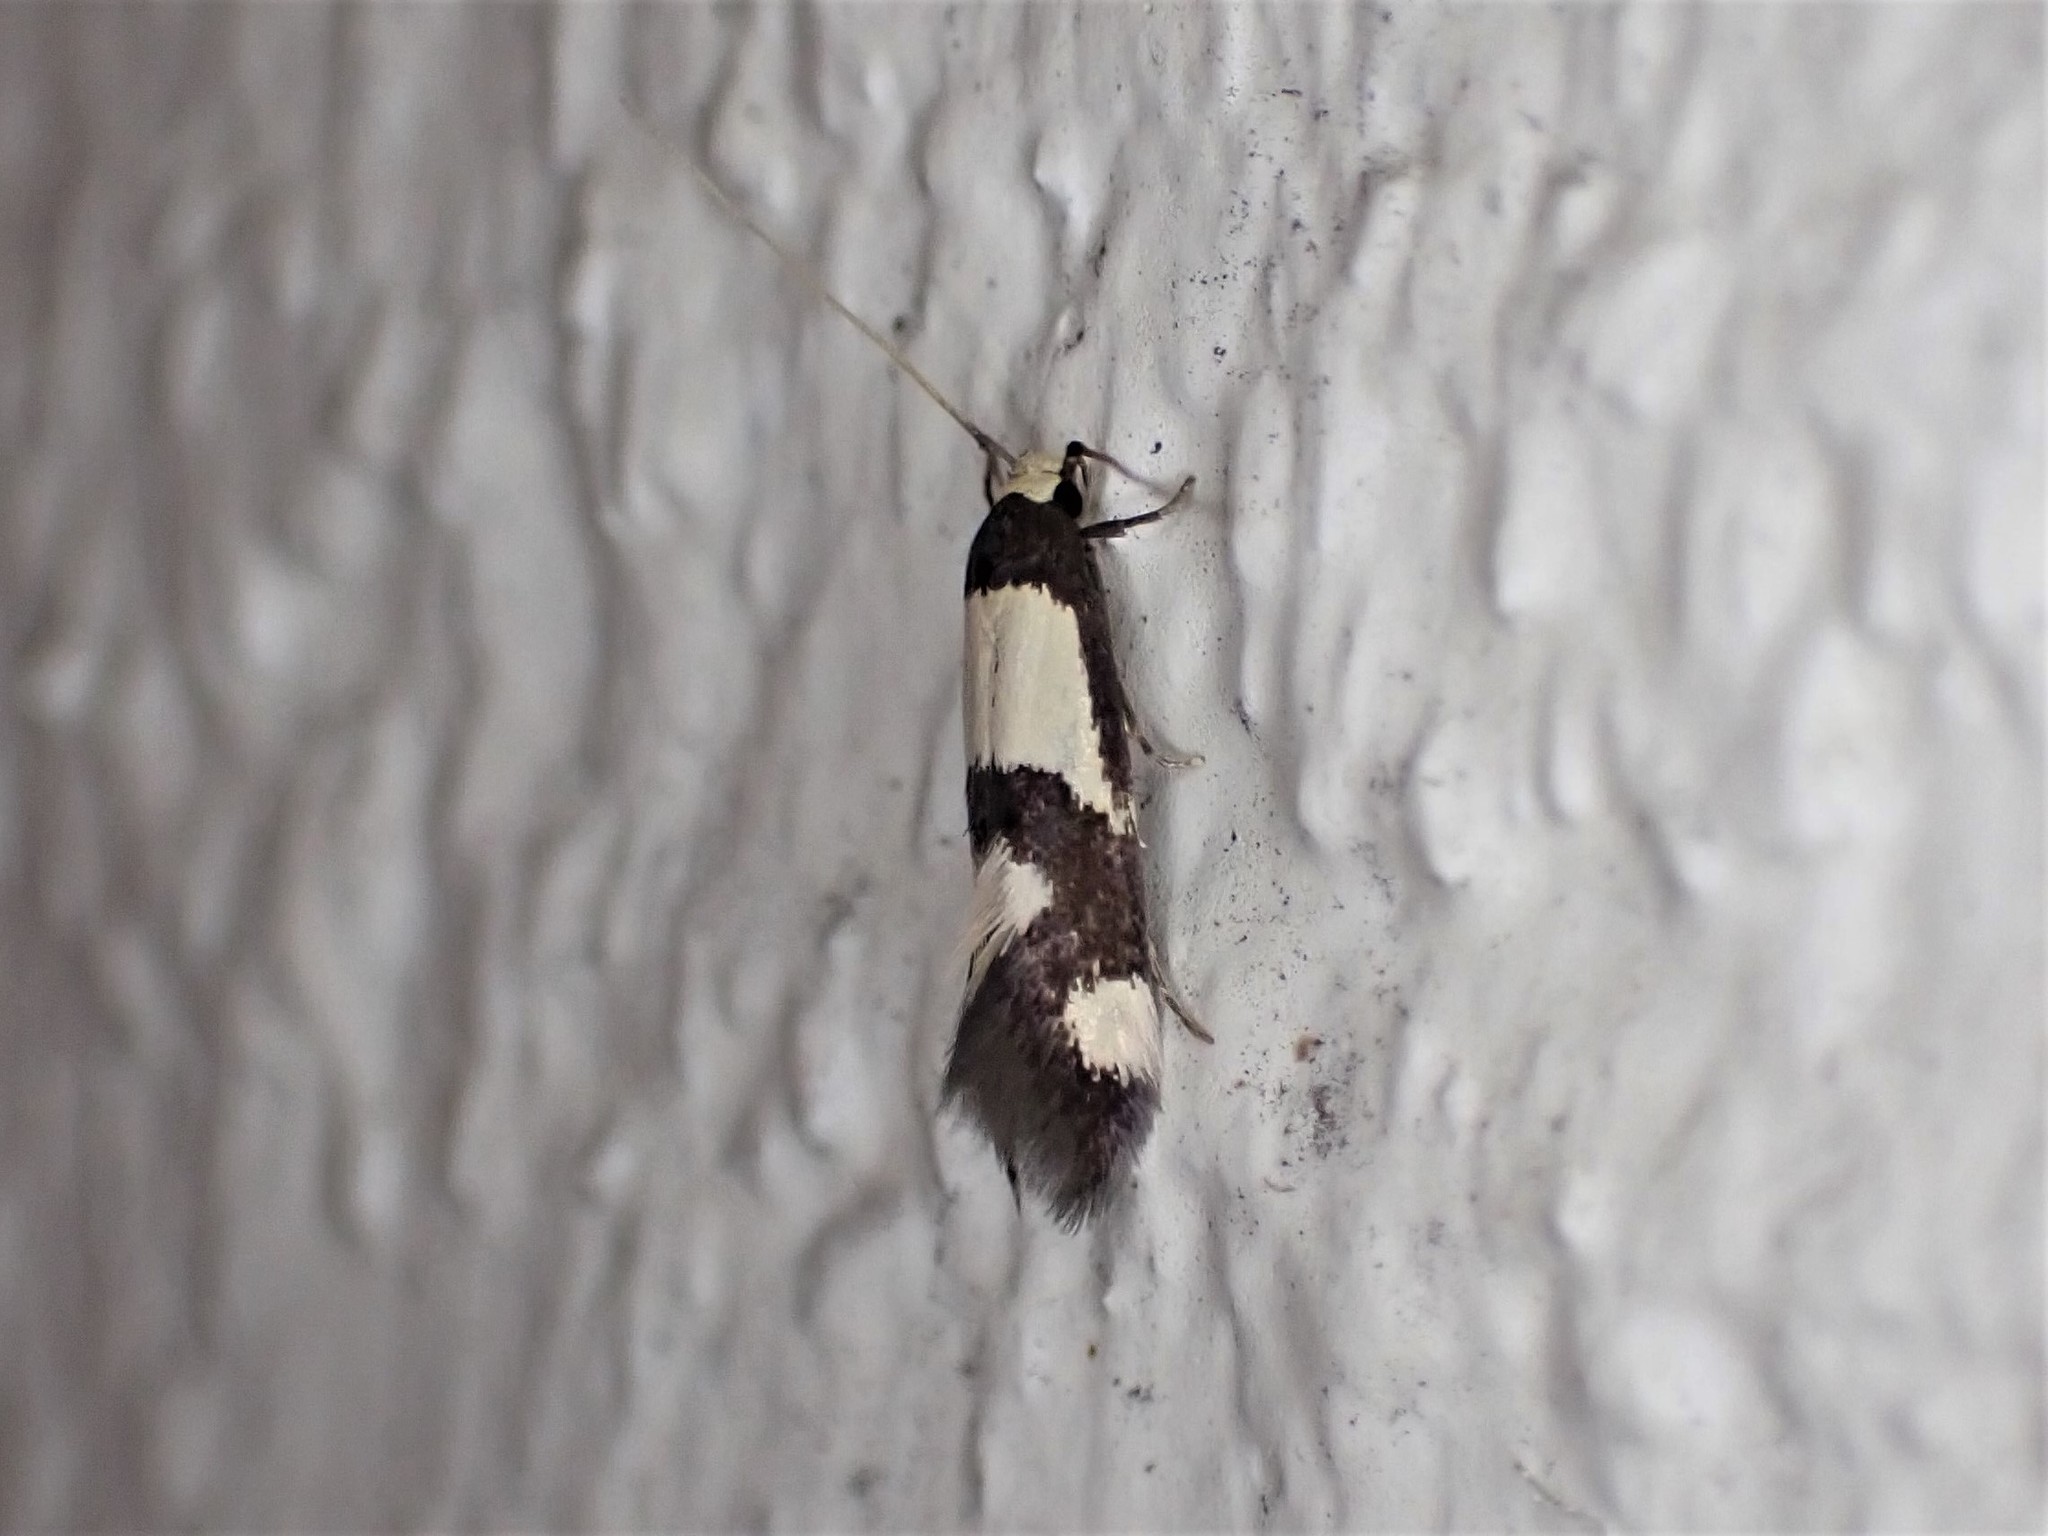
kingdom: Animalia
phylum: Arthropoda
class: Insecta
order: Lepidoptera
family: Tineidae
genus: Opogona
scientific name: Opogona comptella
